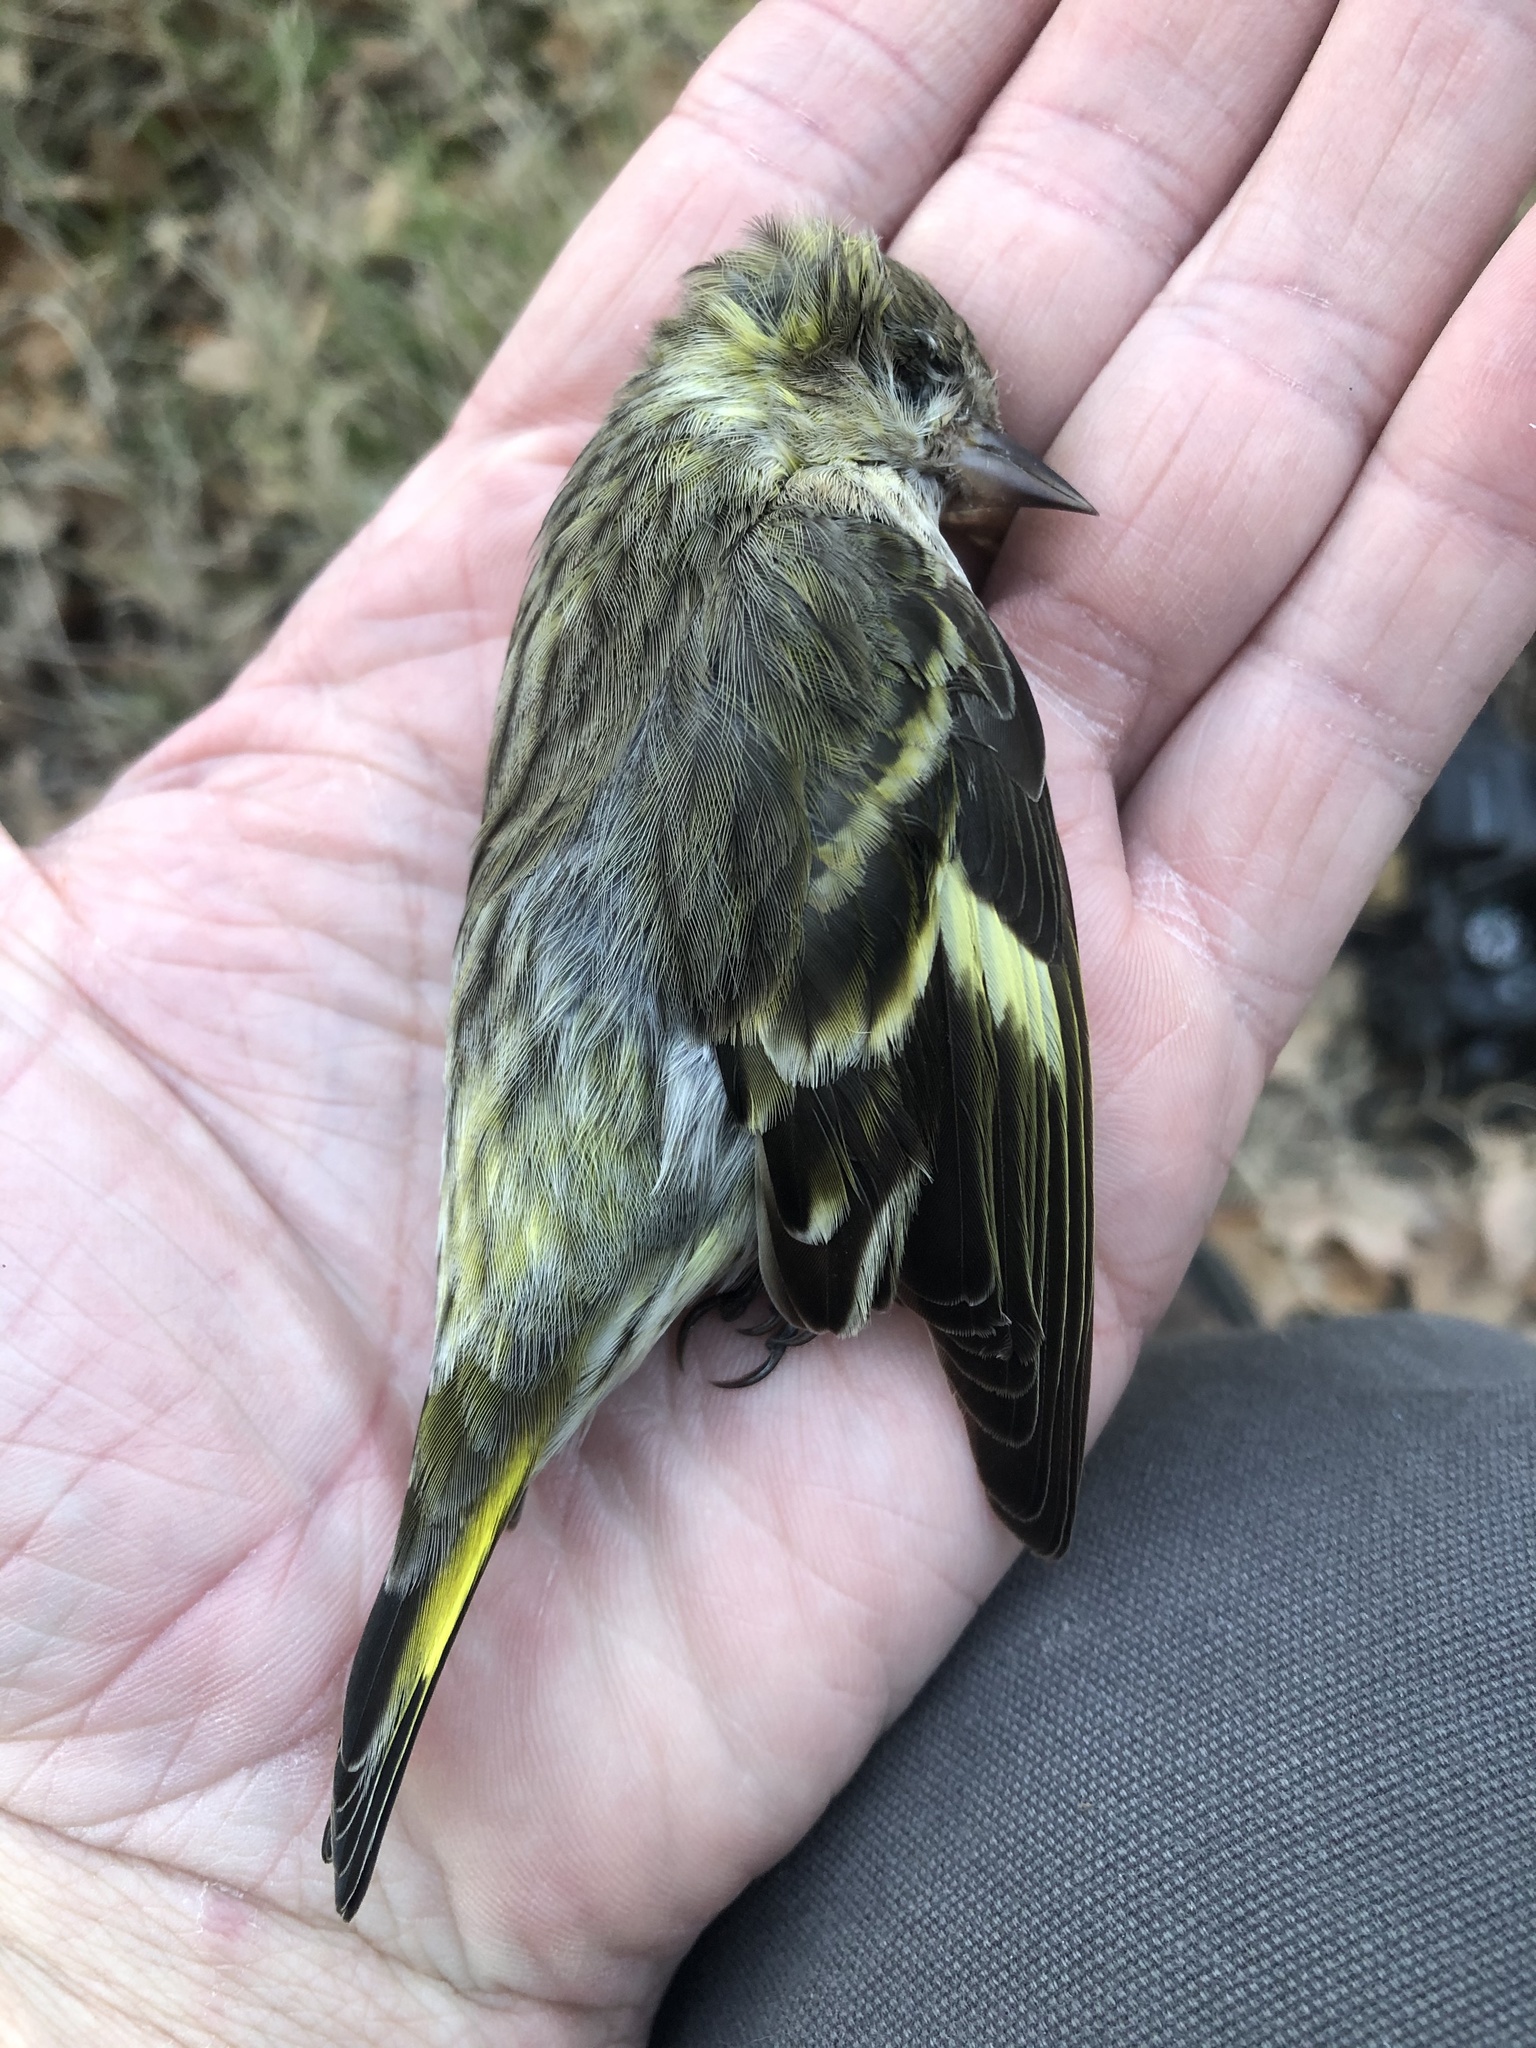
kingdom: Animalia
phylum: Chordata
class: Aves
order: Passeriformes
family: Fringillidae
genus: Spinus
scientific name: Spinus pinus
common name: Pine siskin
